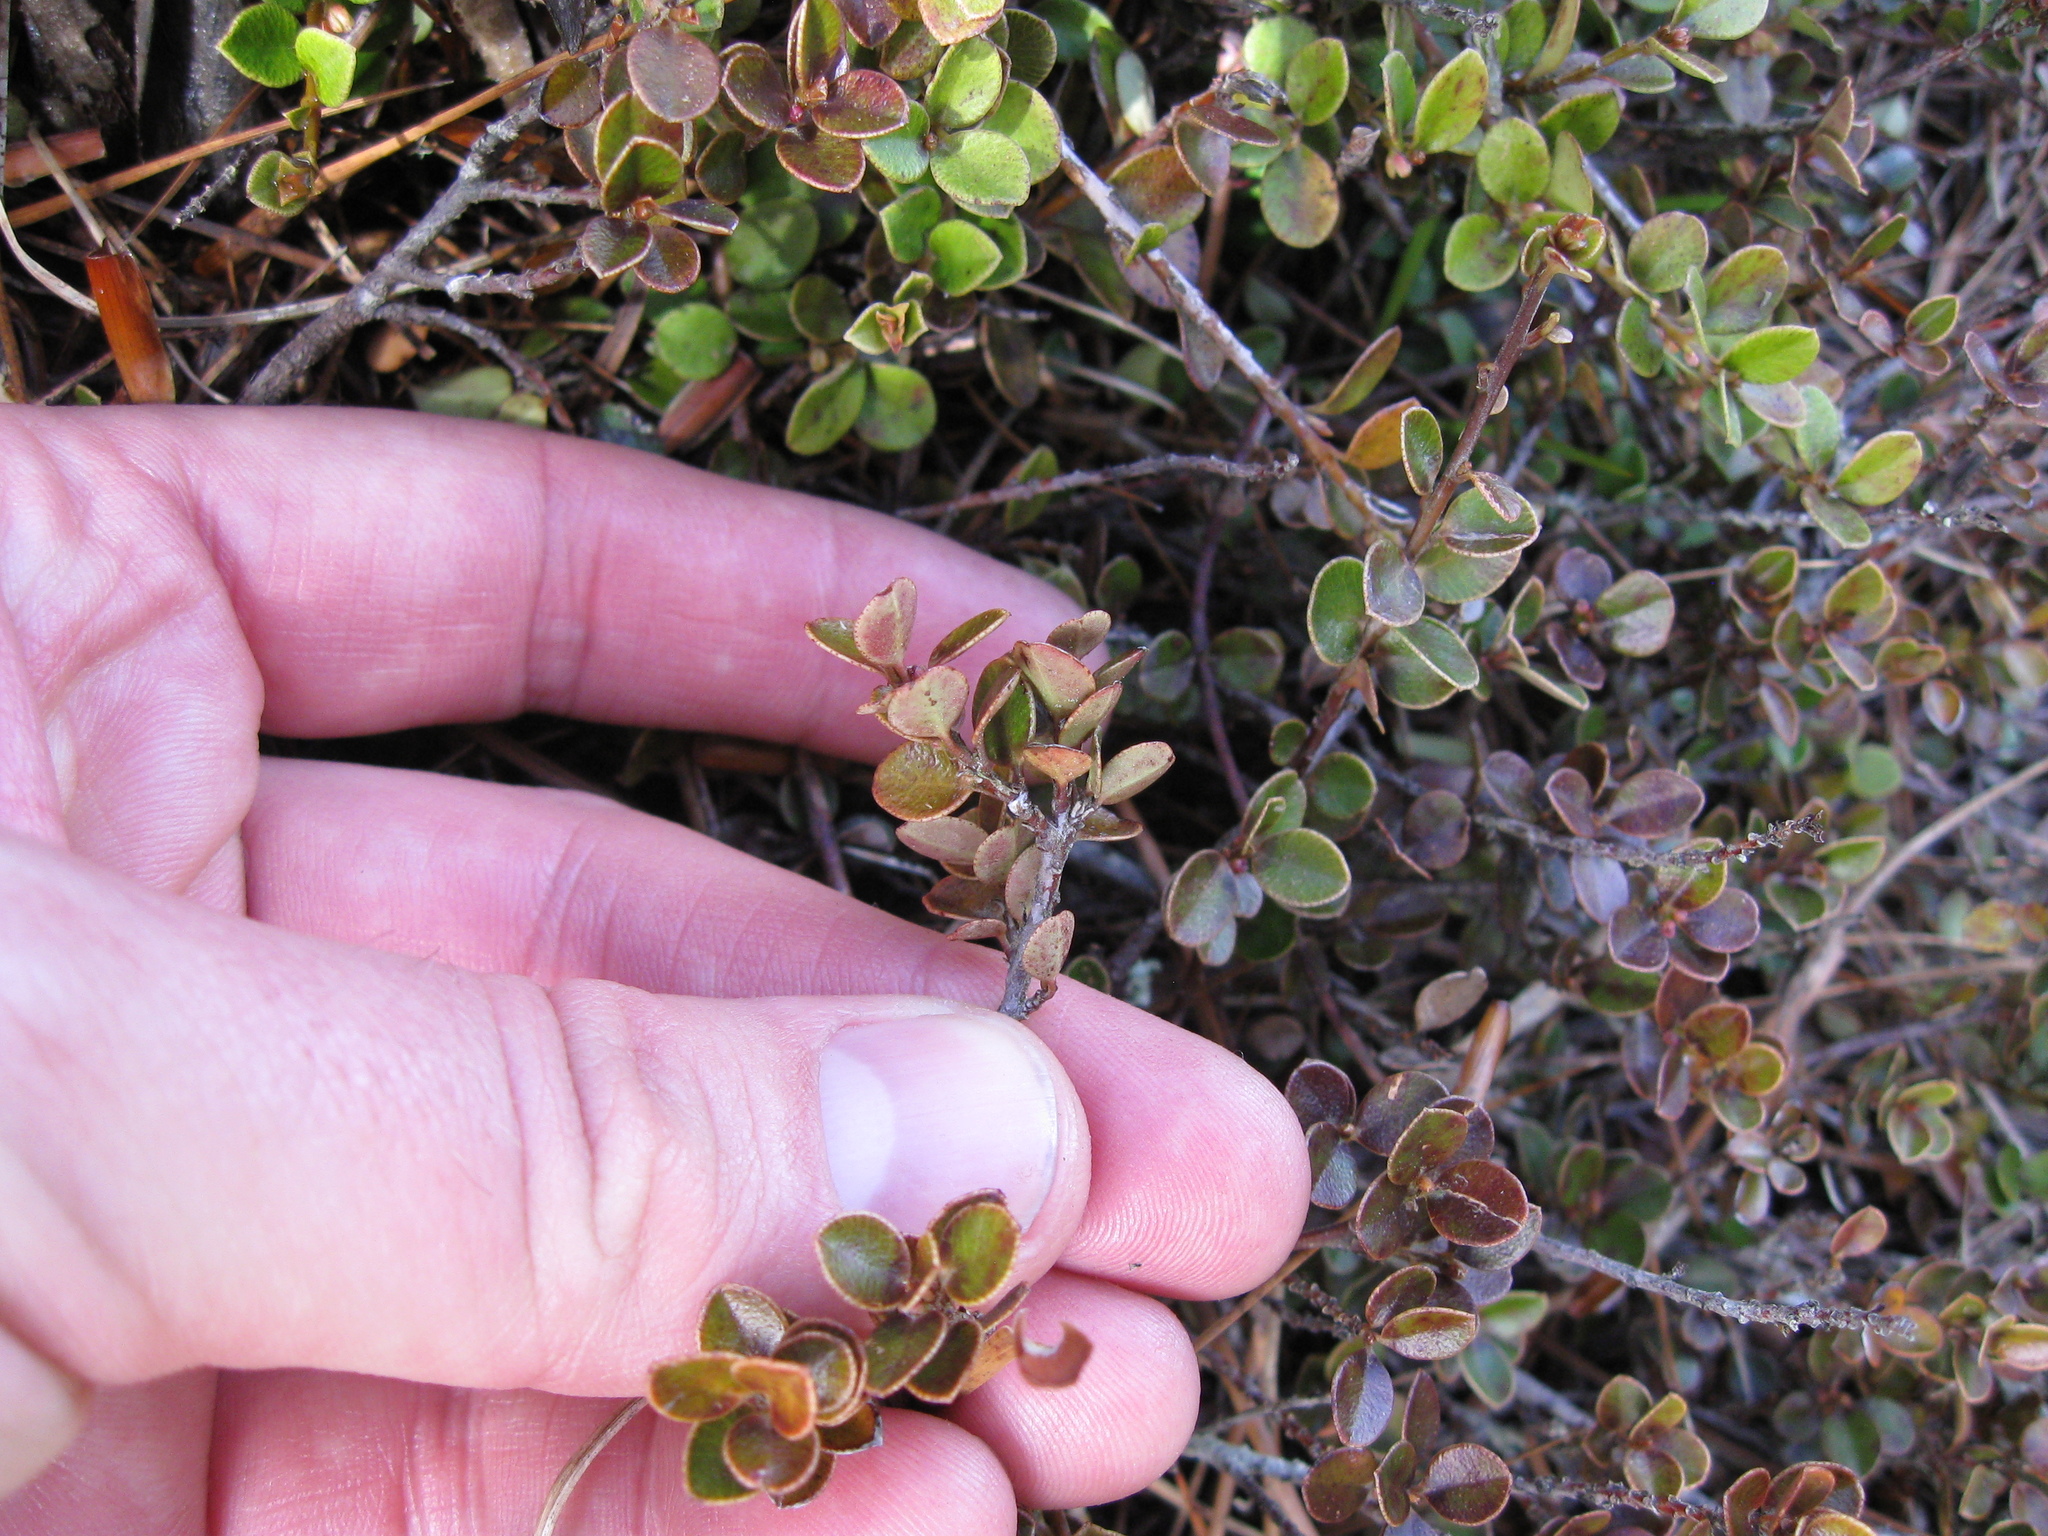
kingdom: Plantae
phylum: Tracheophyta
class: Magnoliopsida
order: Ericales
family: Primulaceae
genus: Myrsine
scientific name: Myrsine nummularia
